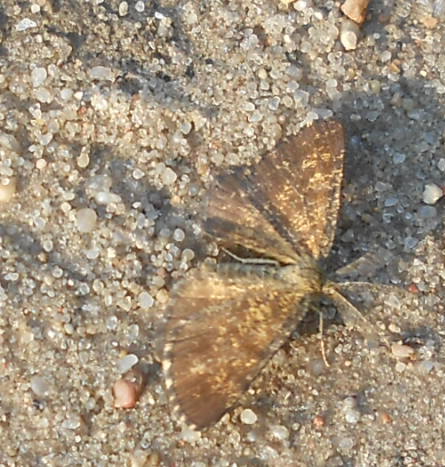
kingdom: Animalia
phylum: Arthropoda
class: Insecta
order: Lepidoptera
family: Geometridae
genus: Ematurga
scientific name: Ematurga atomaria
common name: Common heath
